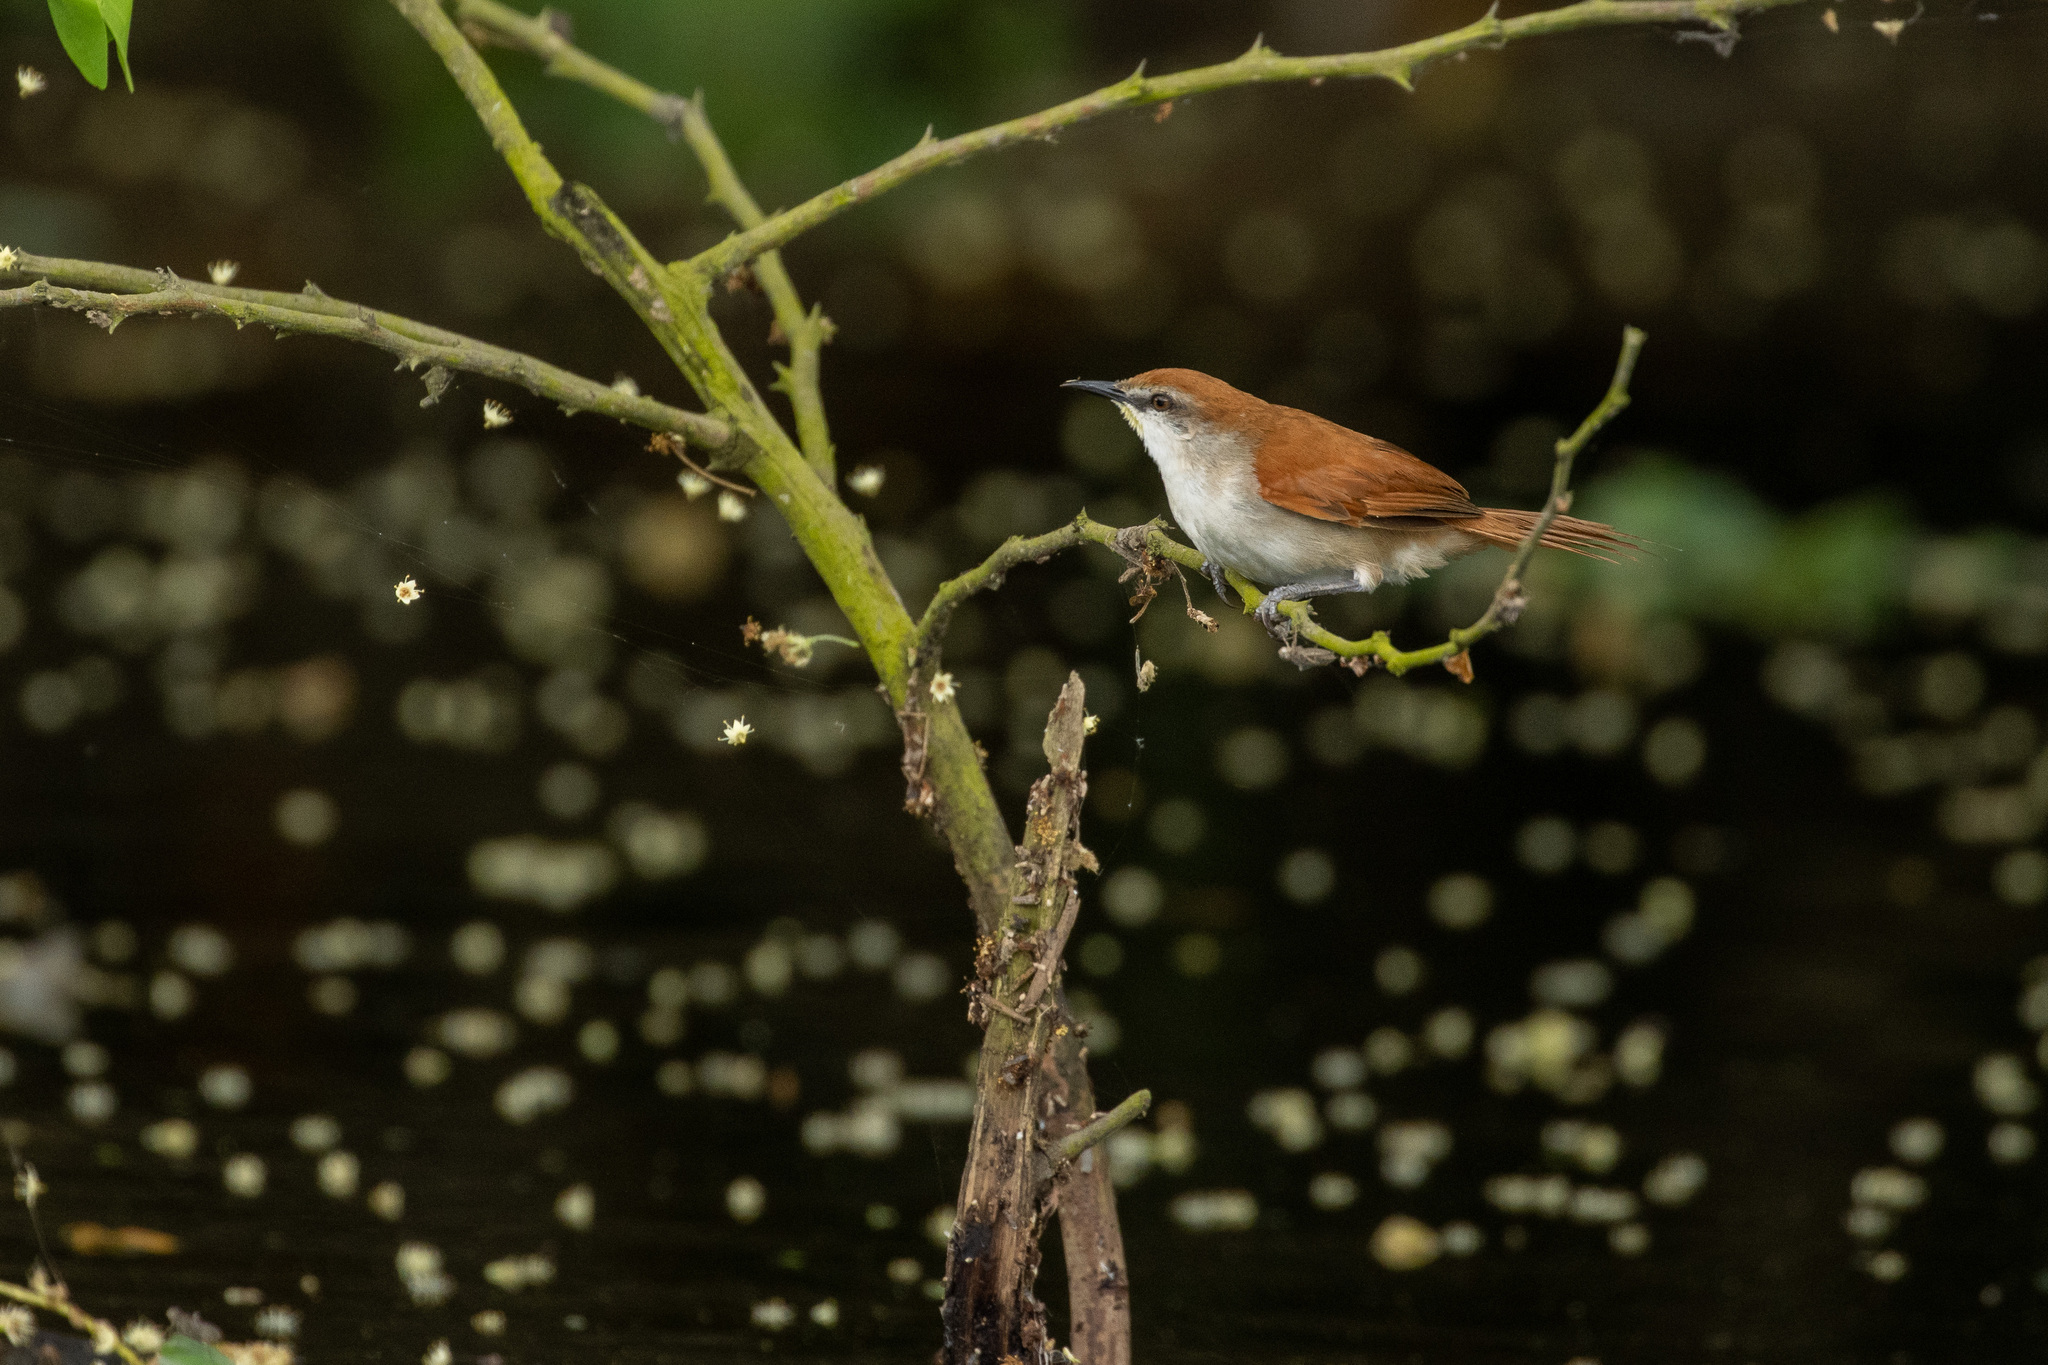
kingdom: Animalia
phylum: Chordata
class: Aves
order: Passeriformes
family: Furnariidae
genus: Certhiaxis
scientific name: Certhiaxis cinnamomeus
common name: Yellow-chinned spinetail
